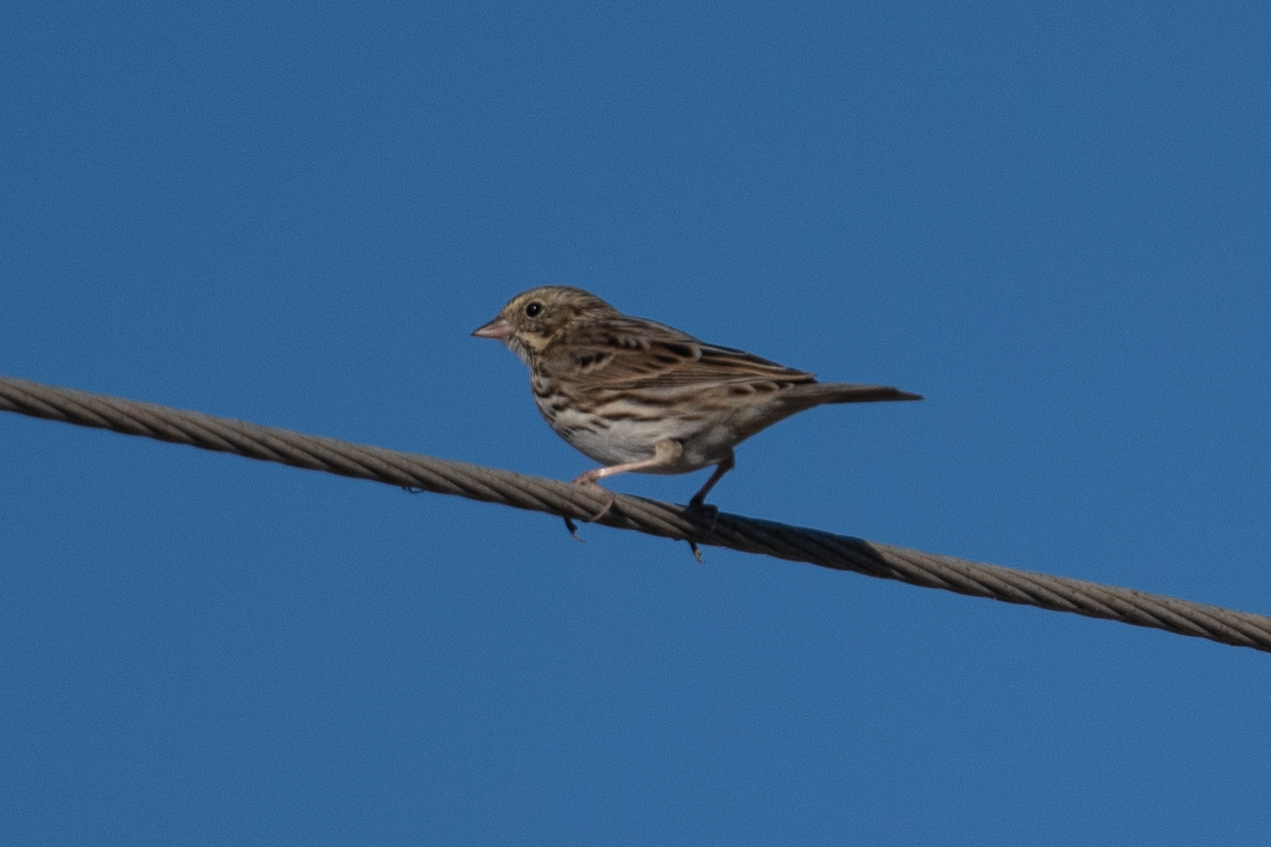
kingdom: Animalia
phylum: Chordata
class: Aves
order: Passeriformes
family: Passerellidae
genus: Passerculus
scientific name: Passerculus sandwichensis
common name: Savannah sparrow
